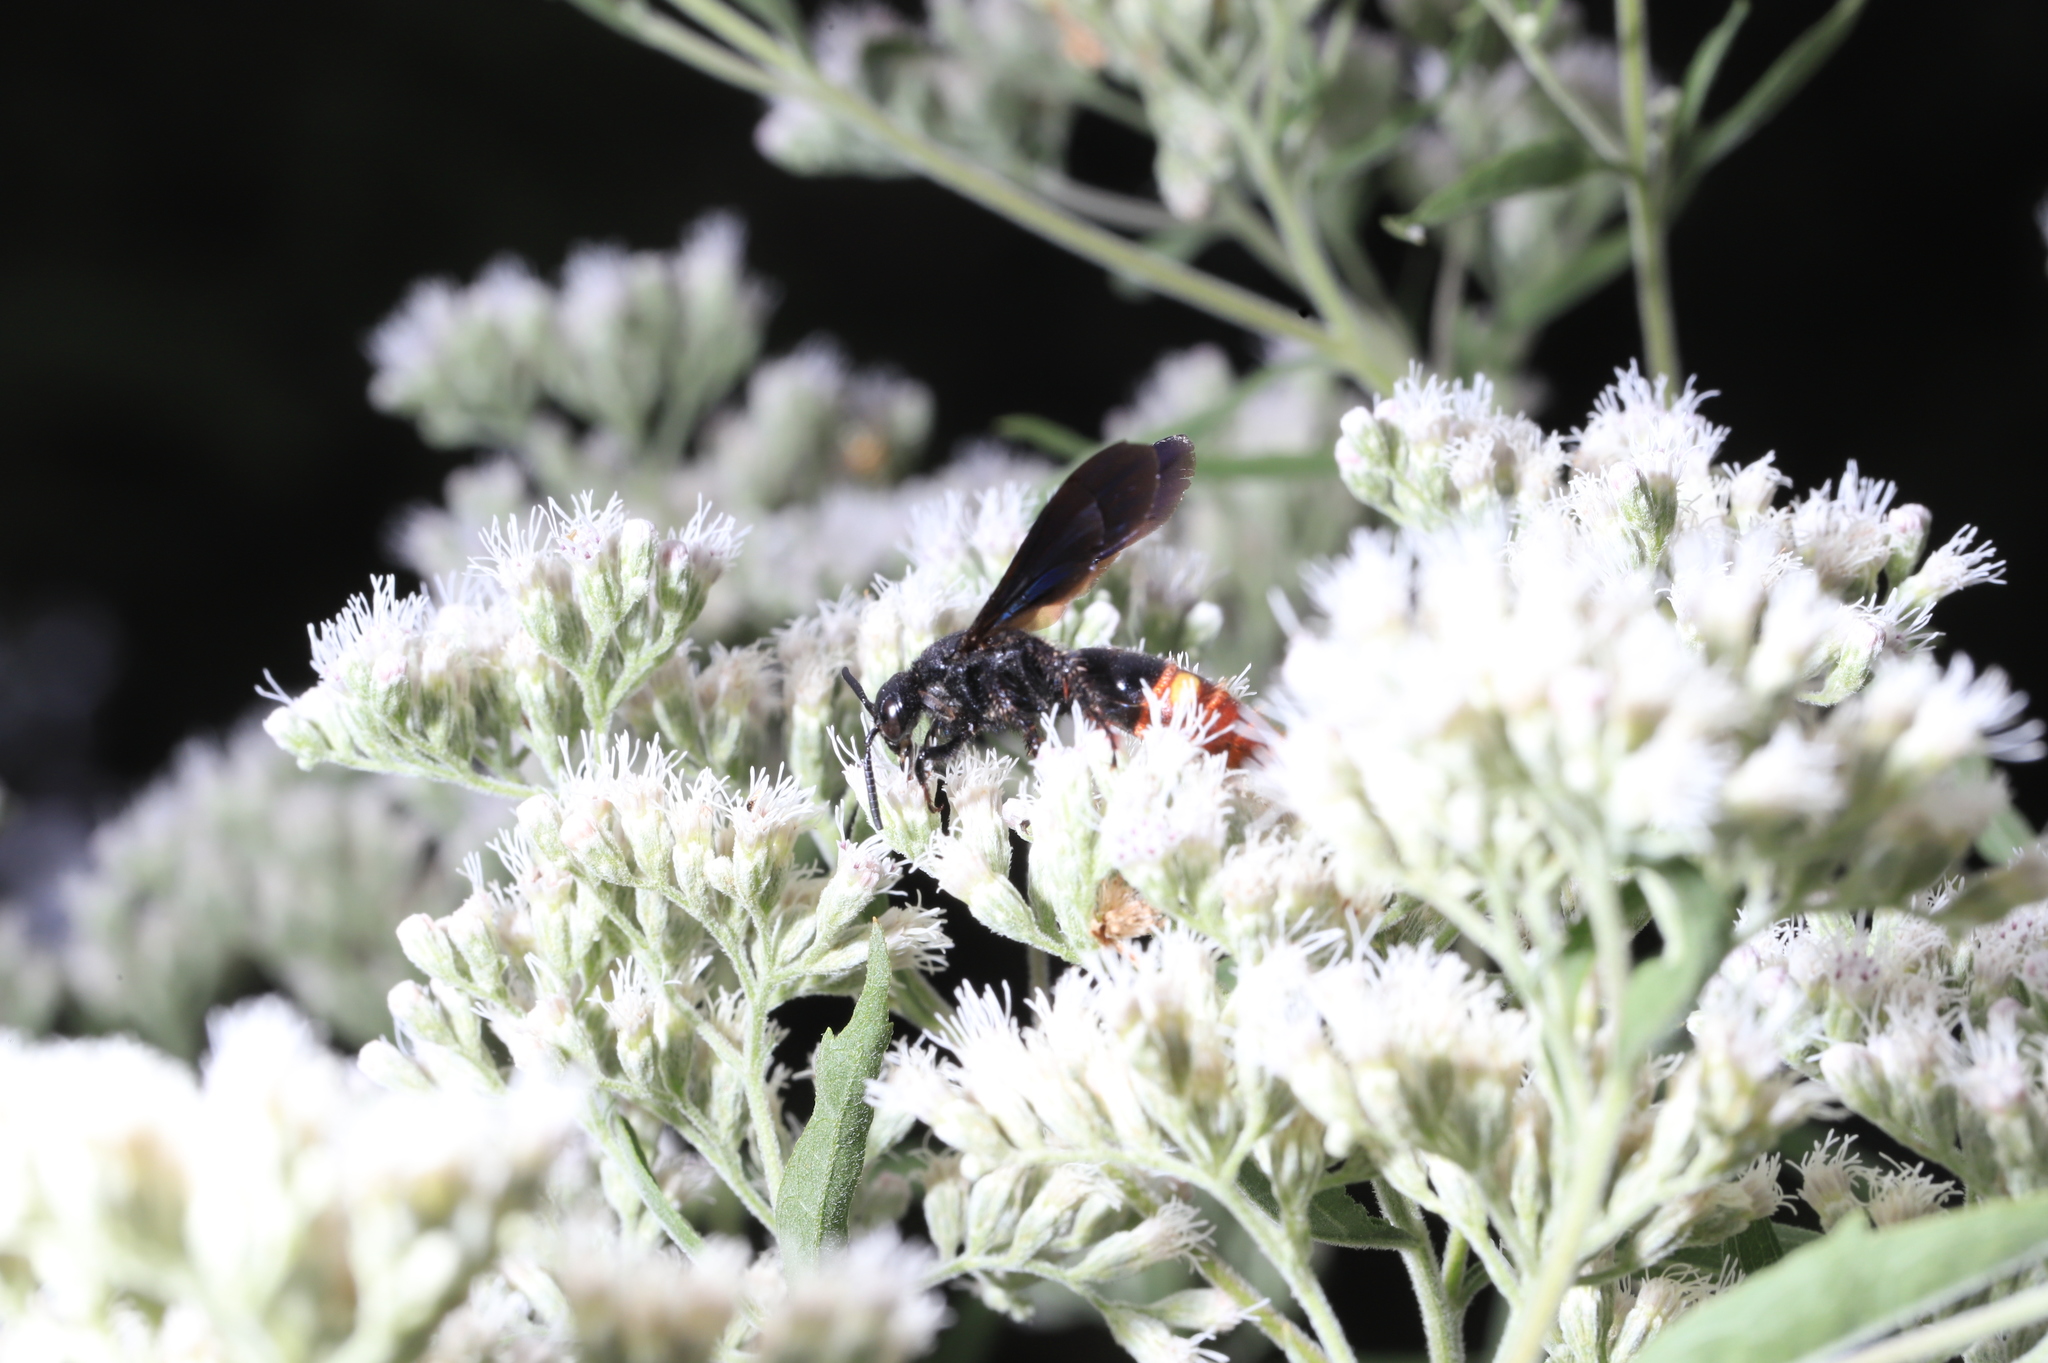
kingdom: Animalia
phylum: Arthropoda
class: Insecta
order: Hymenoptera
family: Scoliidae
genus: Scolia
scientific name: Scolia dubia
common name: Blue-winged scoliid wasp
